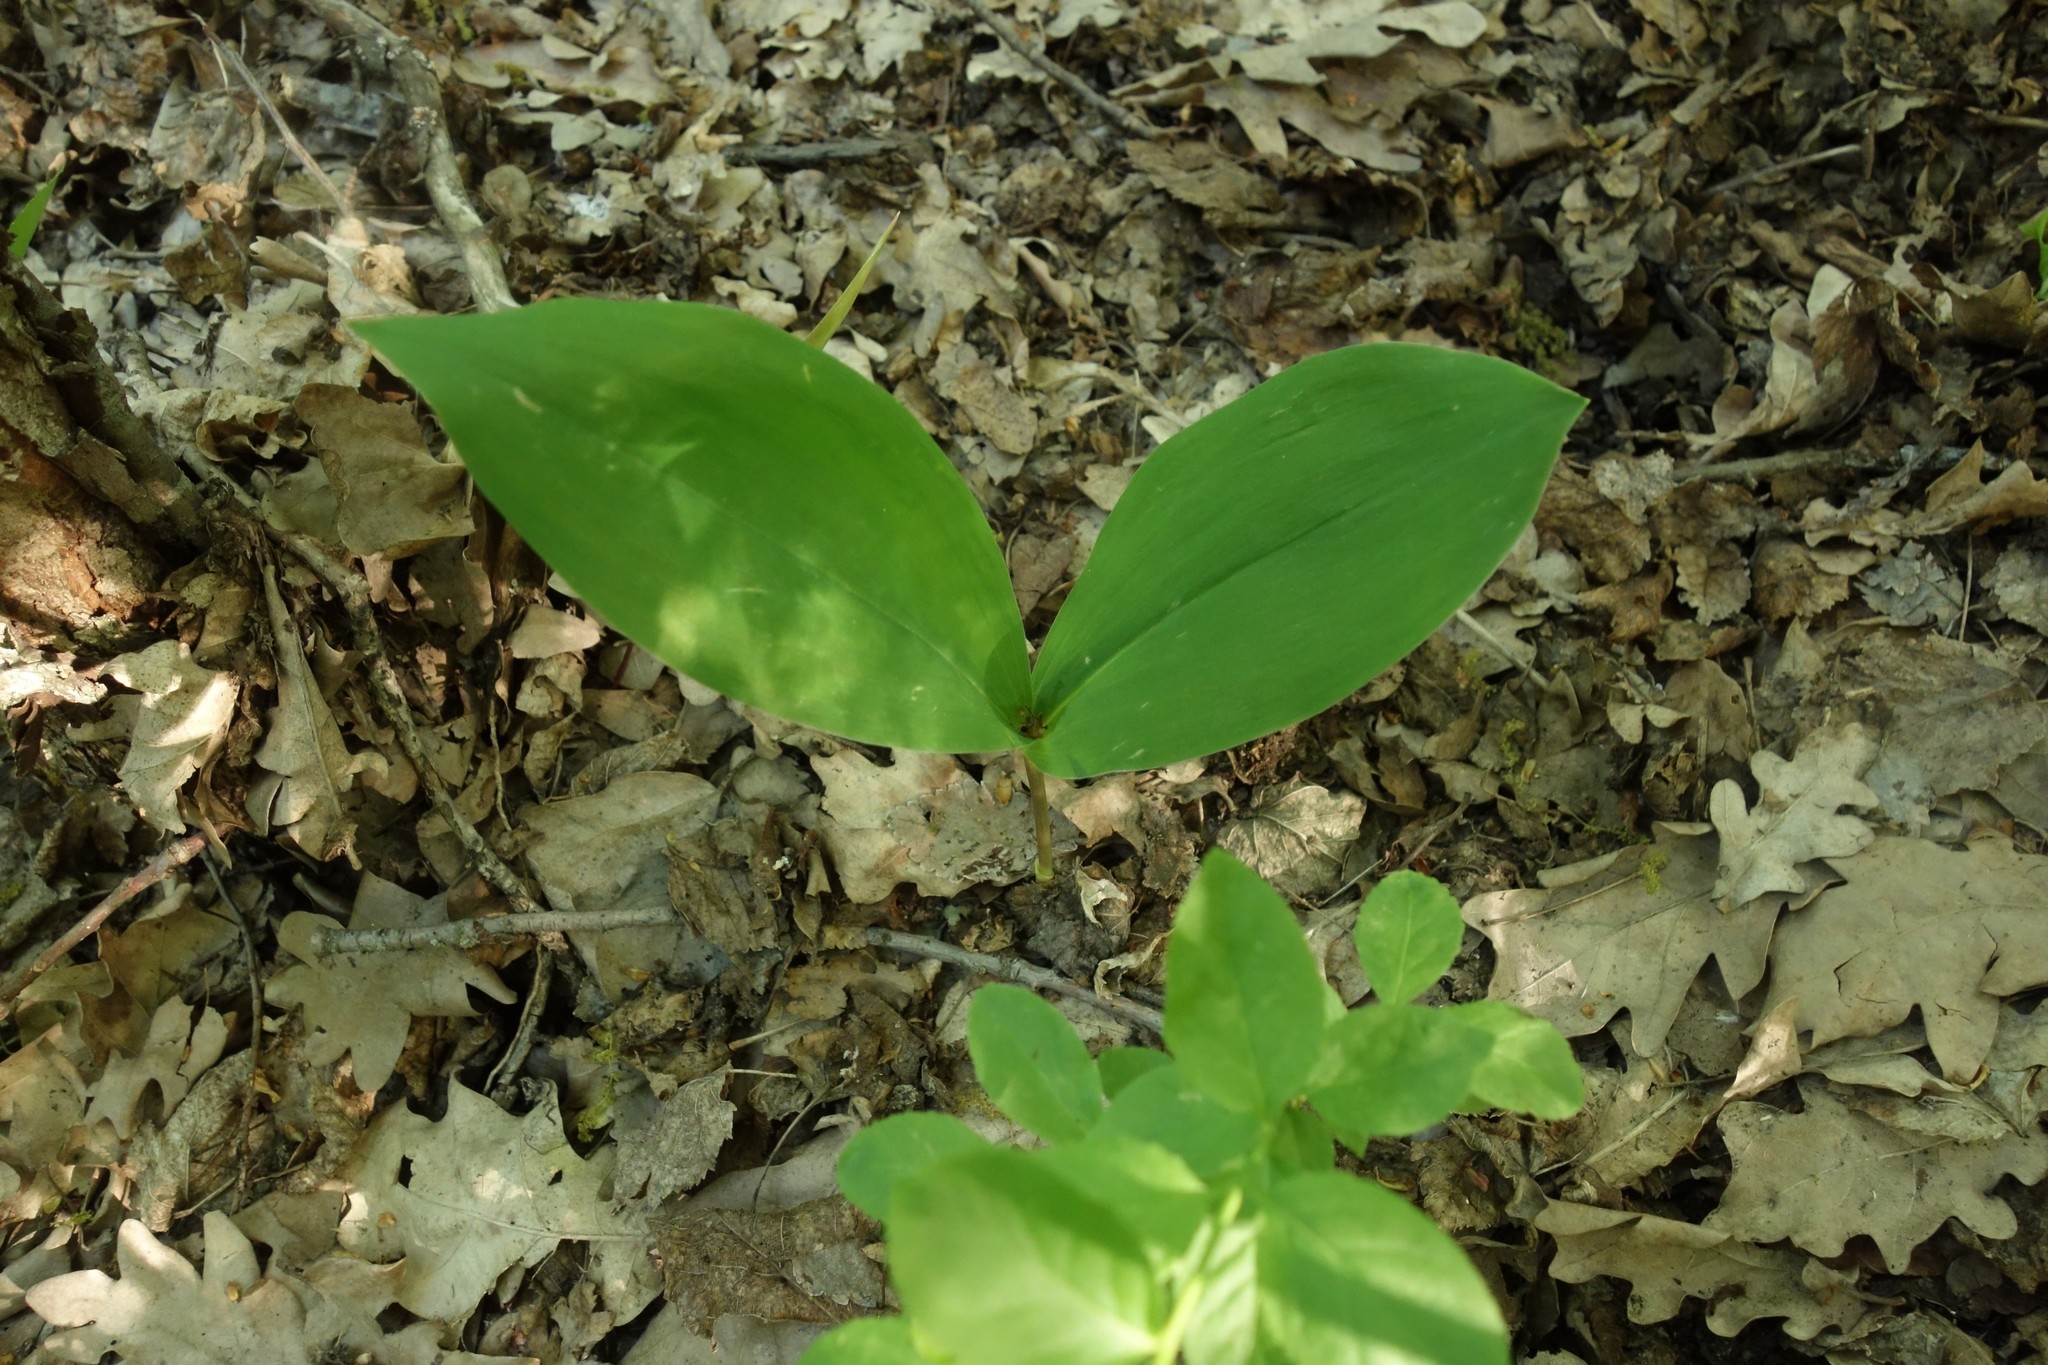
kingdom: Plantae
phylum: Tracheophyta
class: Liliopsida
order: Asparagales
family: Asparagaceae
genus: Convallaria
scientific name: Convallaria majalis
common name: Lily-of-the-valley
